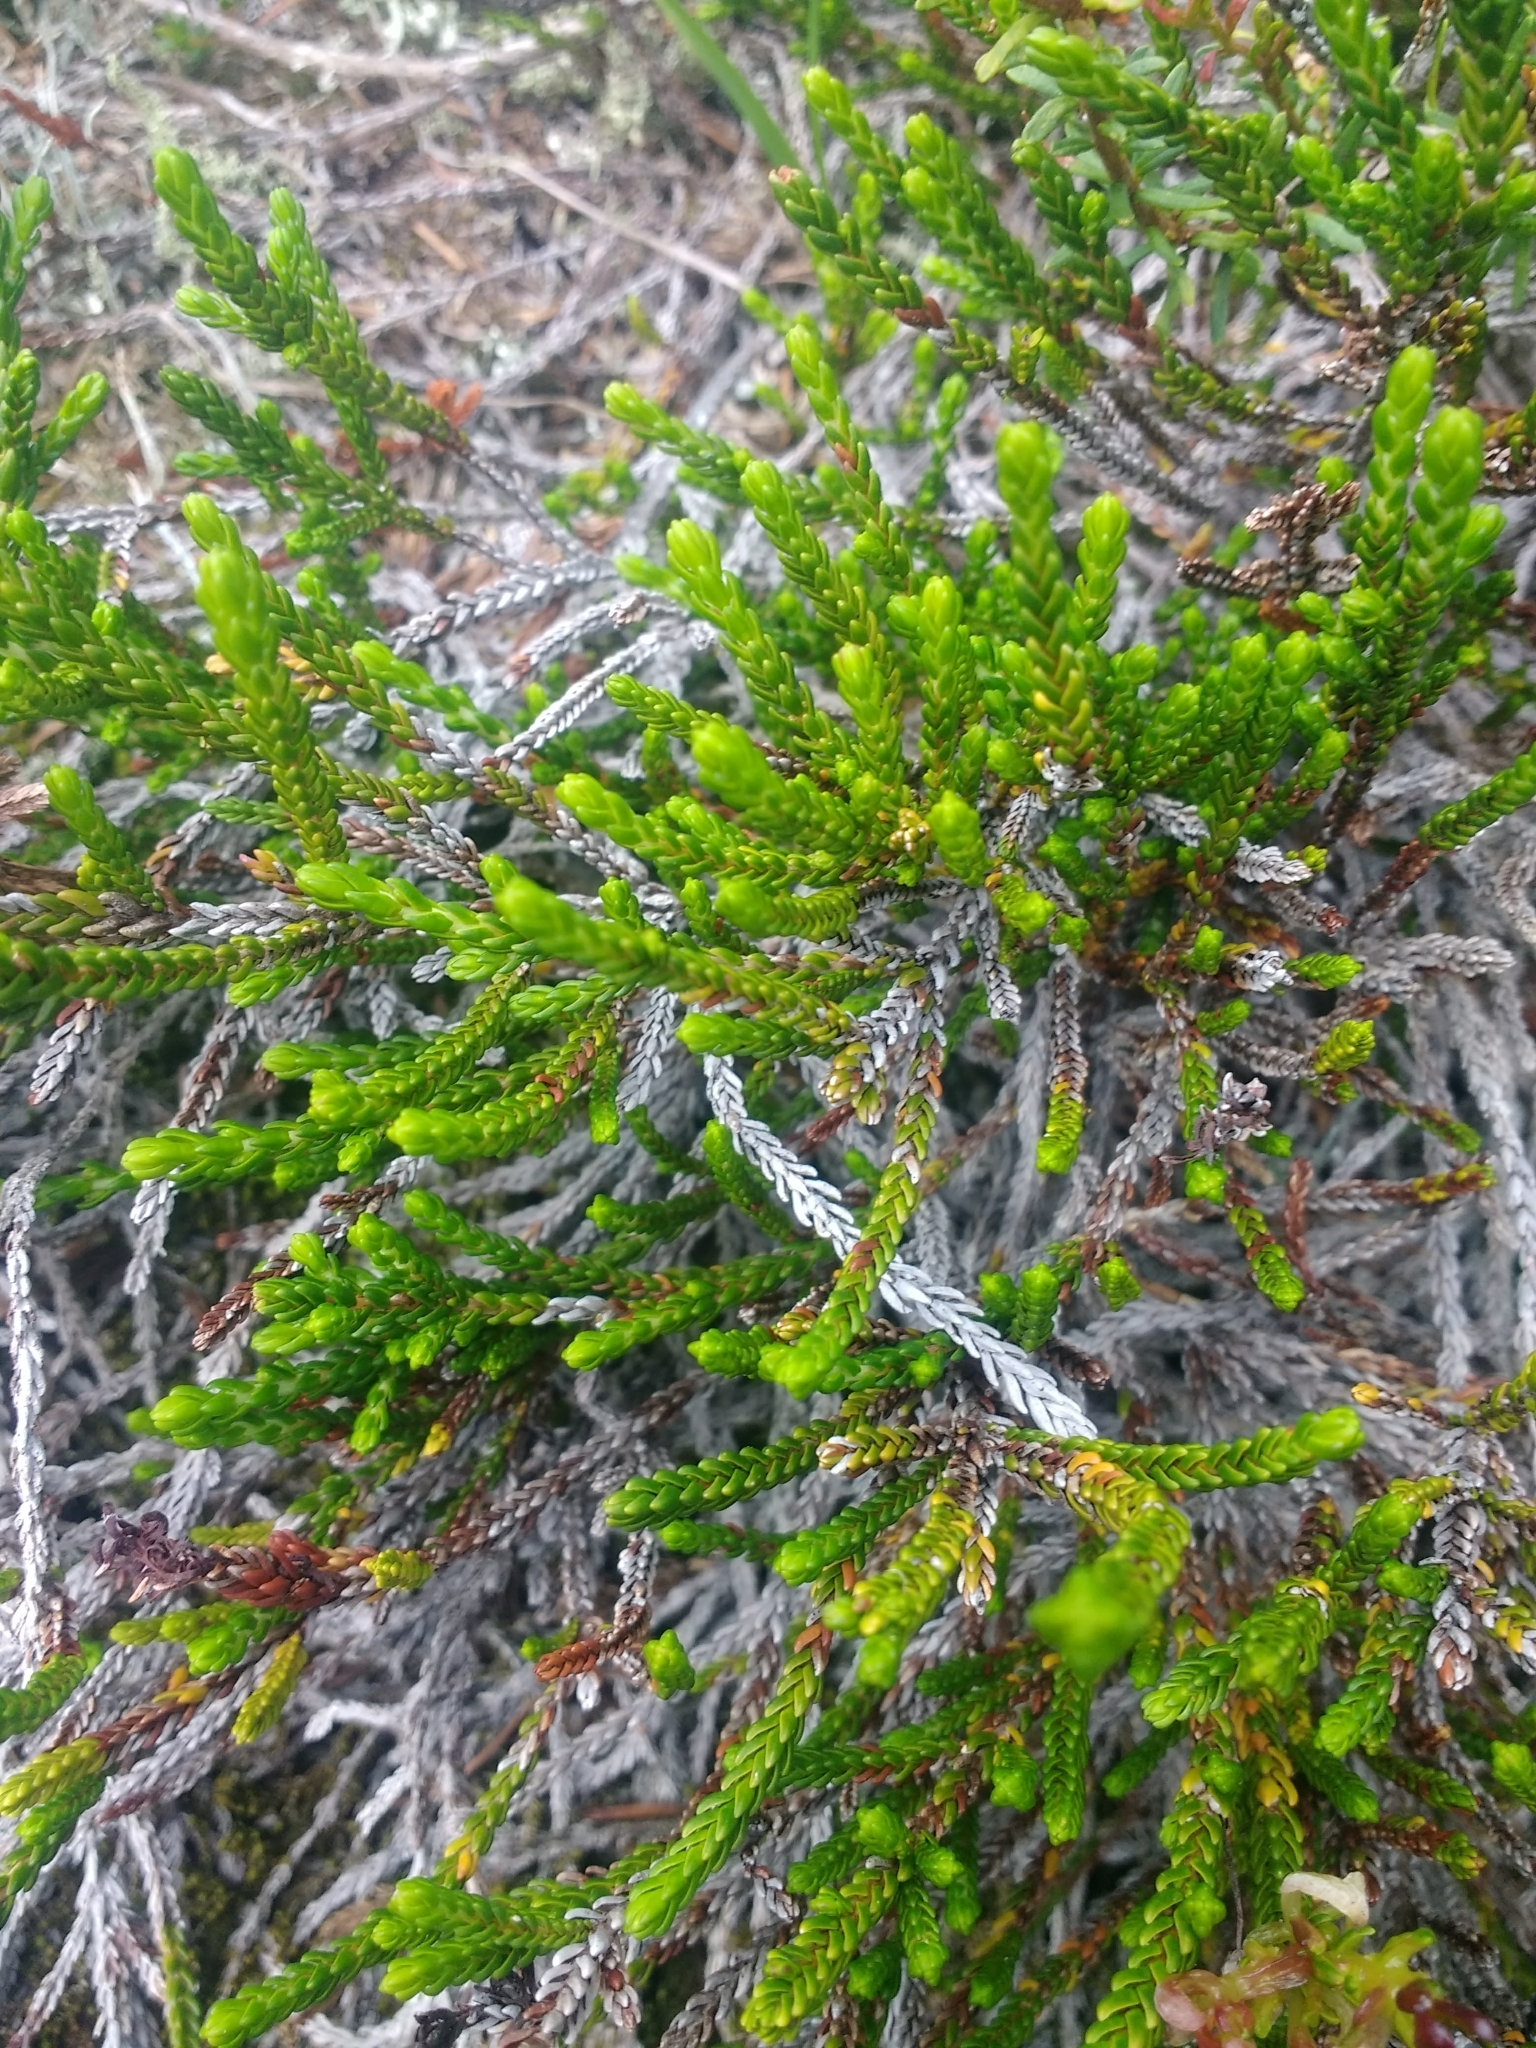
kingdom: Plantae
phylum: Tracheophyta
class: Magnoliopsida
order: Ericales
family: Ericaceae
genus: Cassiope
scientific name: Cassiope mertensiana
